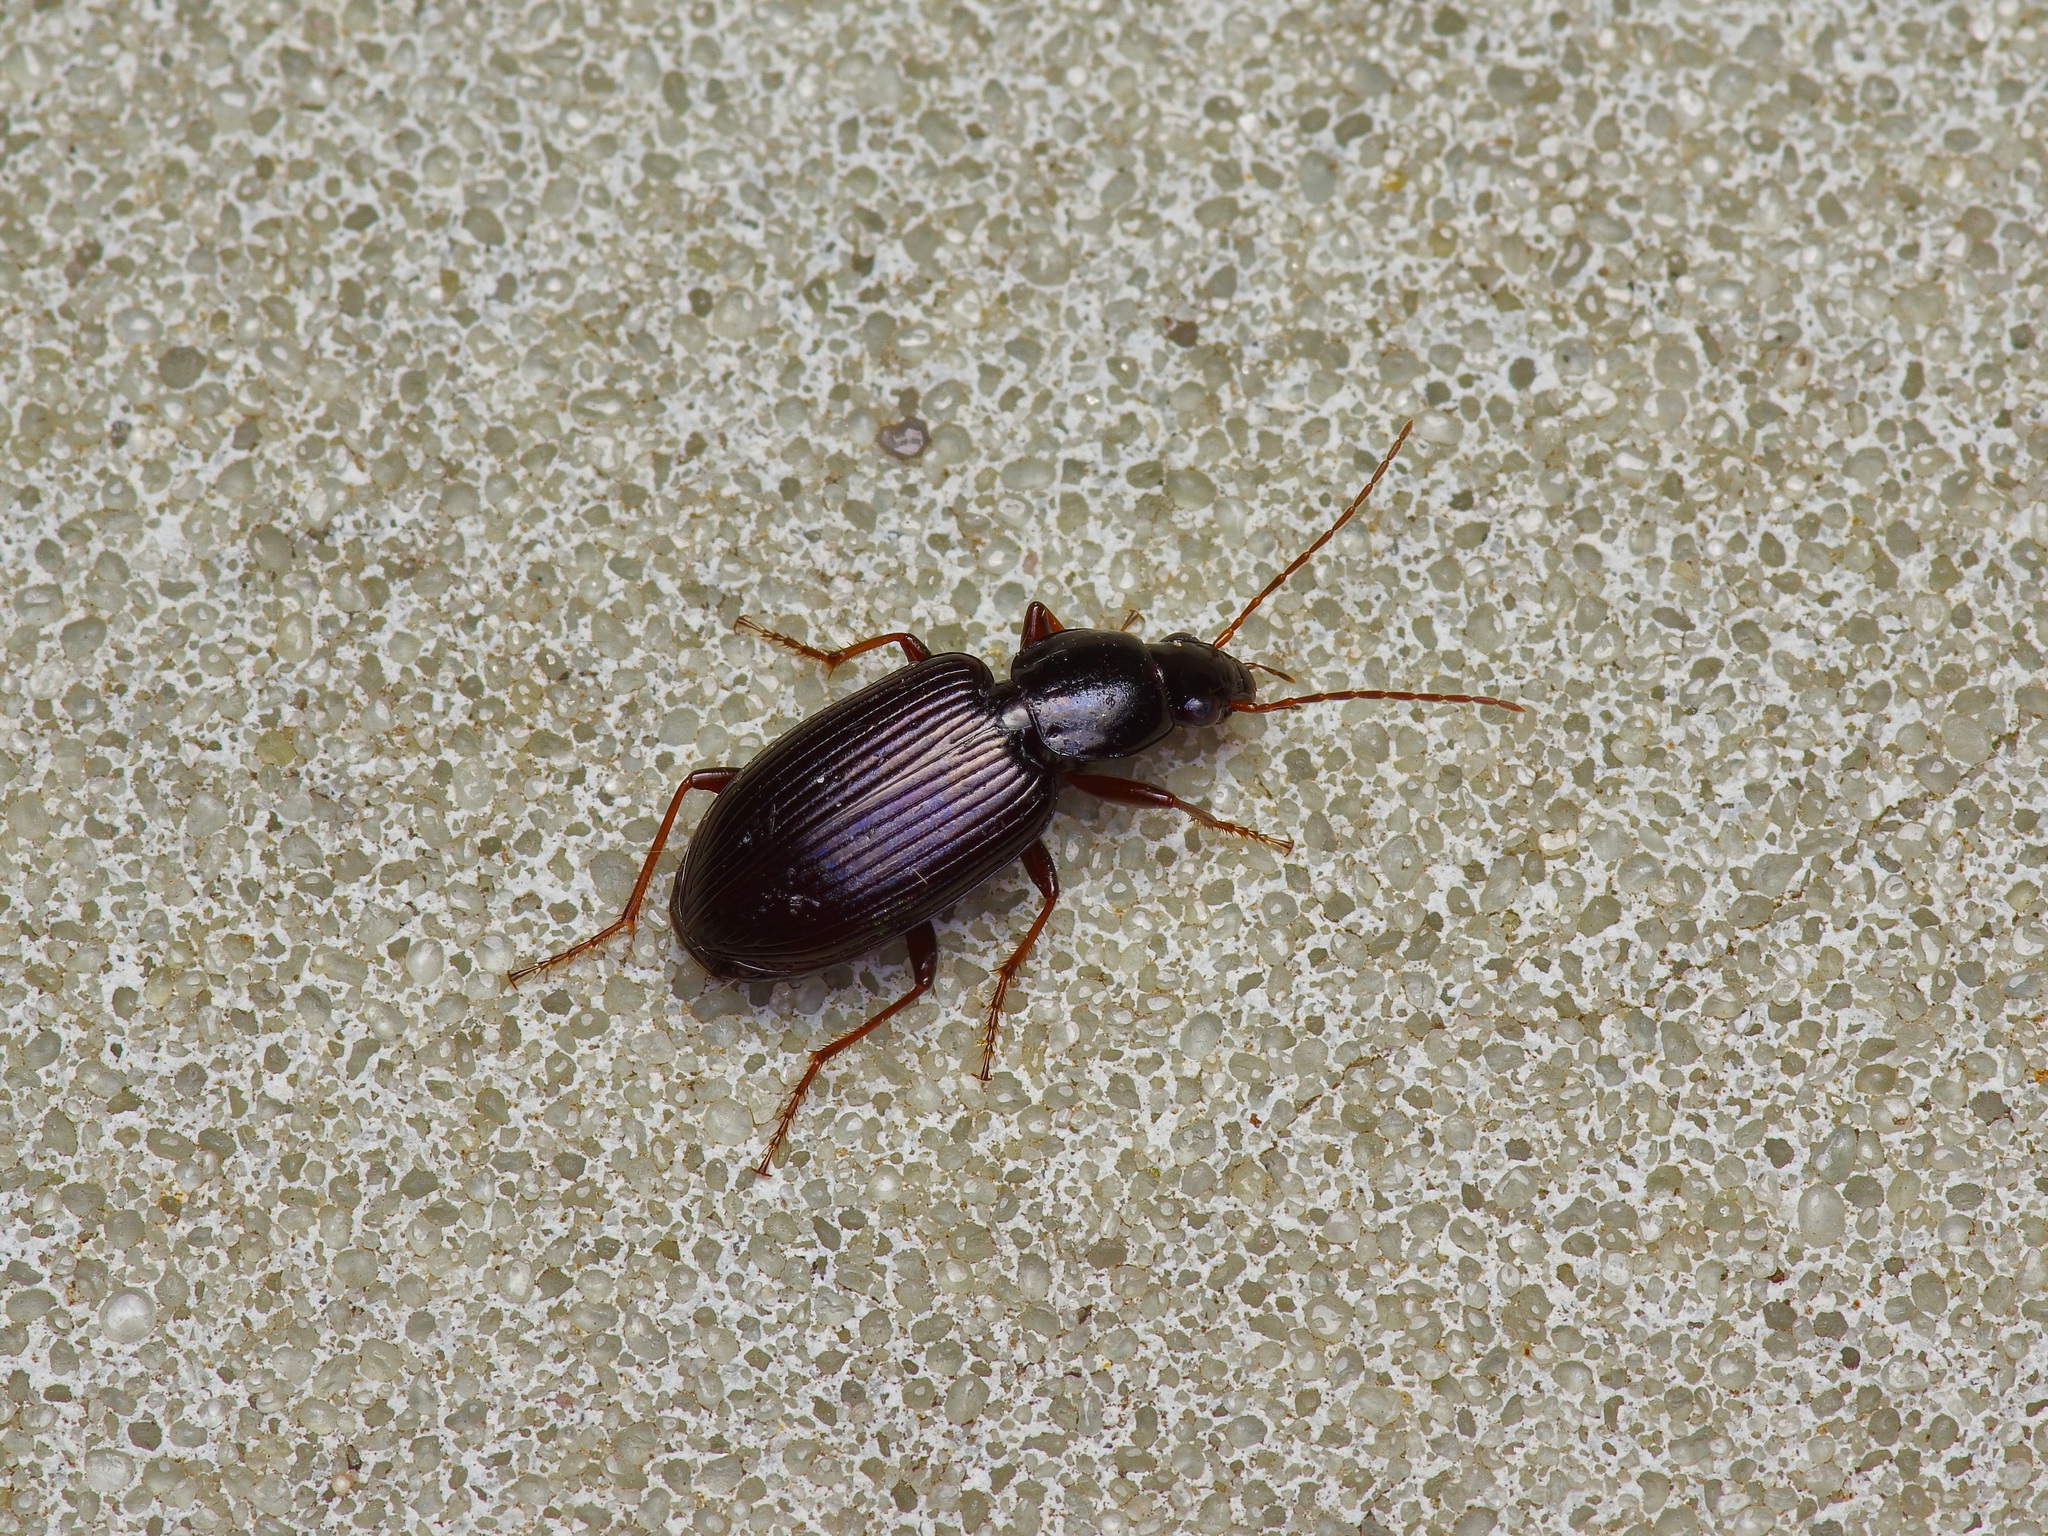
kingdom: Animalia
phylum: Arthropoda
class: Insecta
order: Coleoptera
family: Carabidae
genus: Agonum
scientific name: Agonum punctiforme
